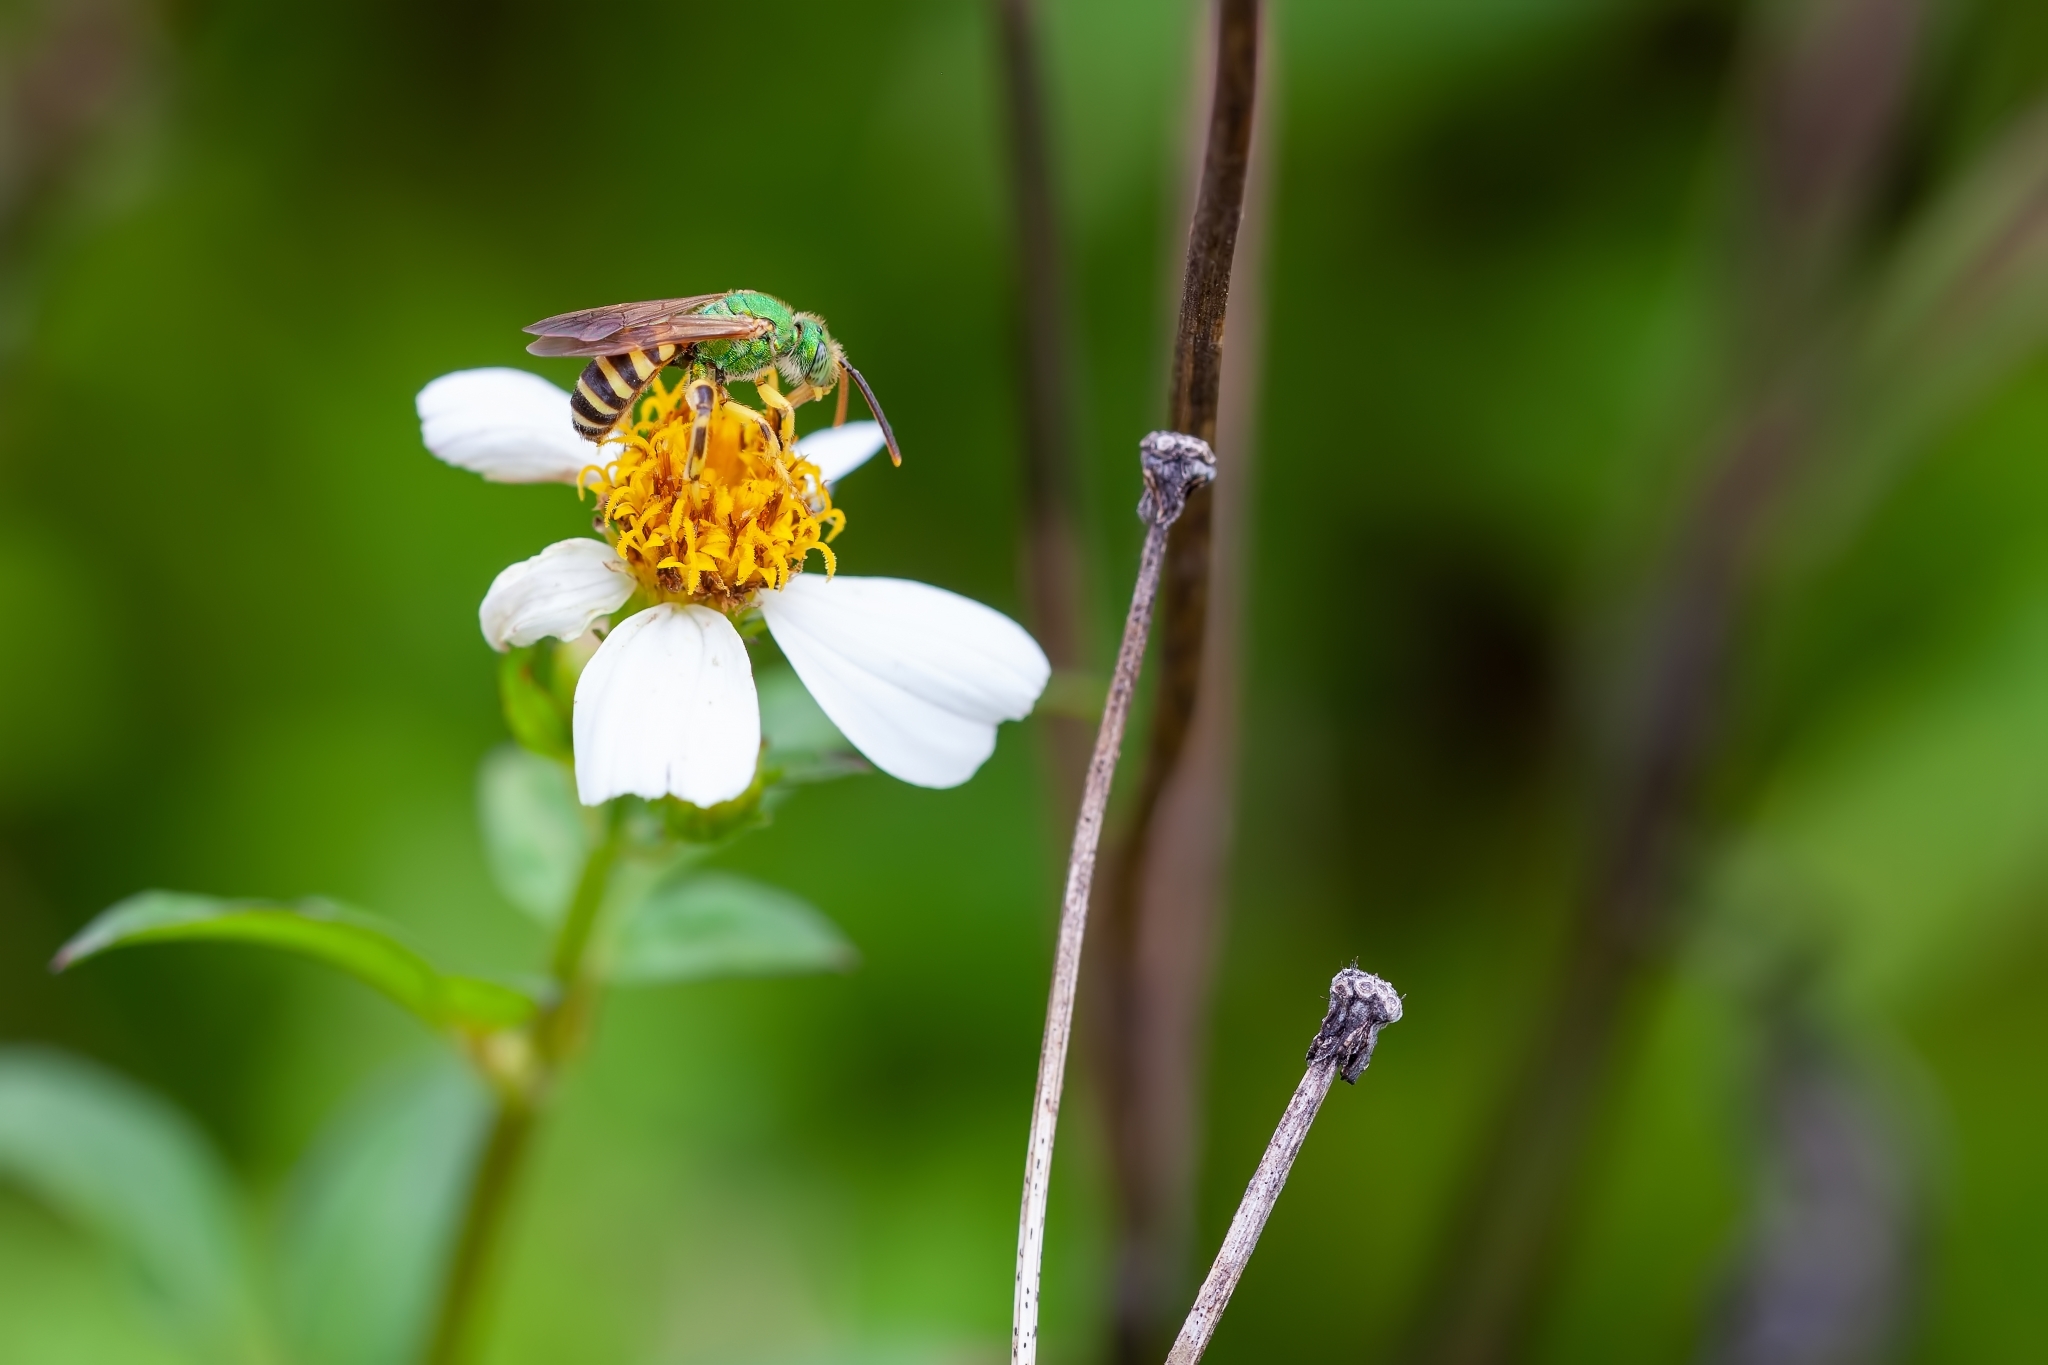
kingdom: Animalia
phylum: Arthropoda
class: Insecta
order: Hymenoptera
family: Halictidae
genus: Agapostemon
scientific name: Agapostemon splendens
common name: Brown-winged striped sweat bee
